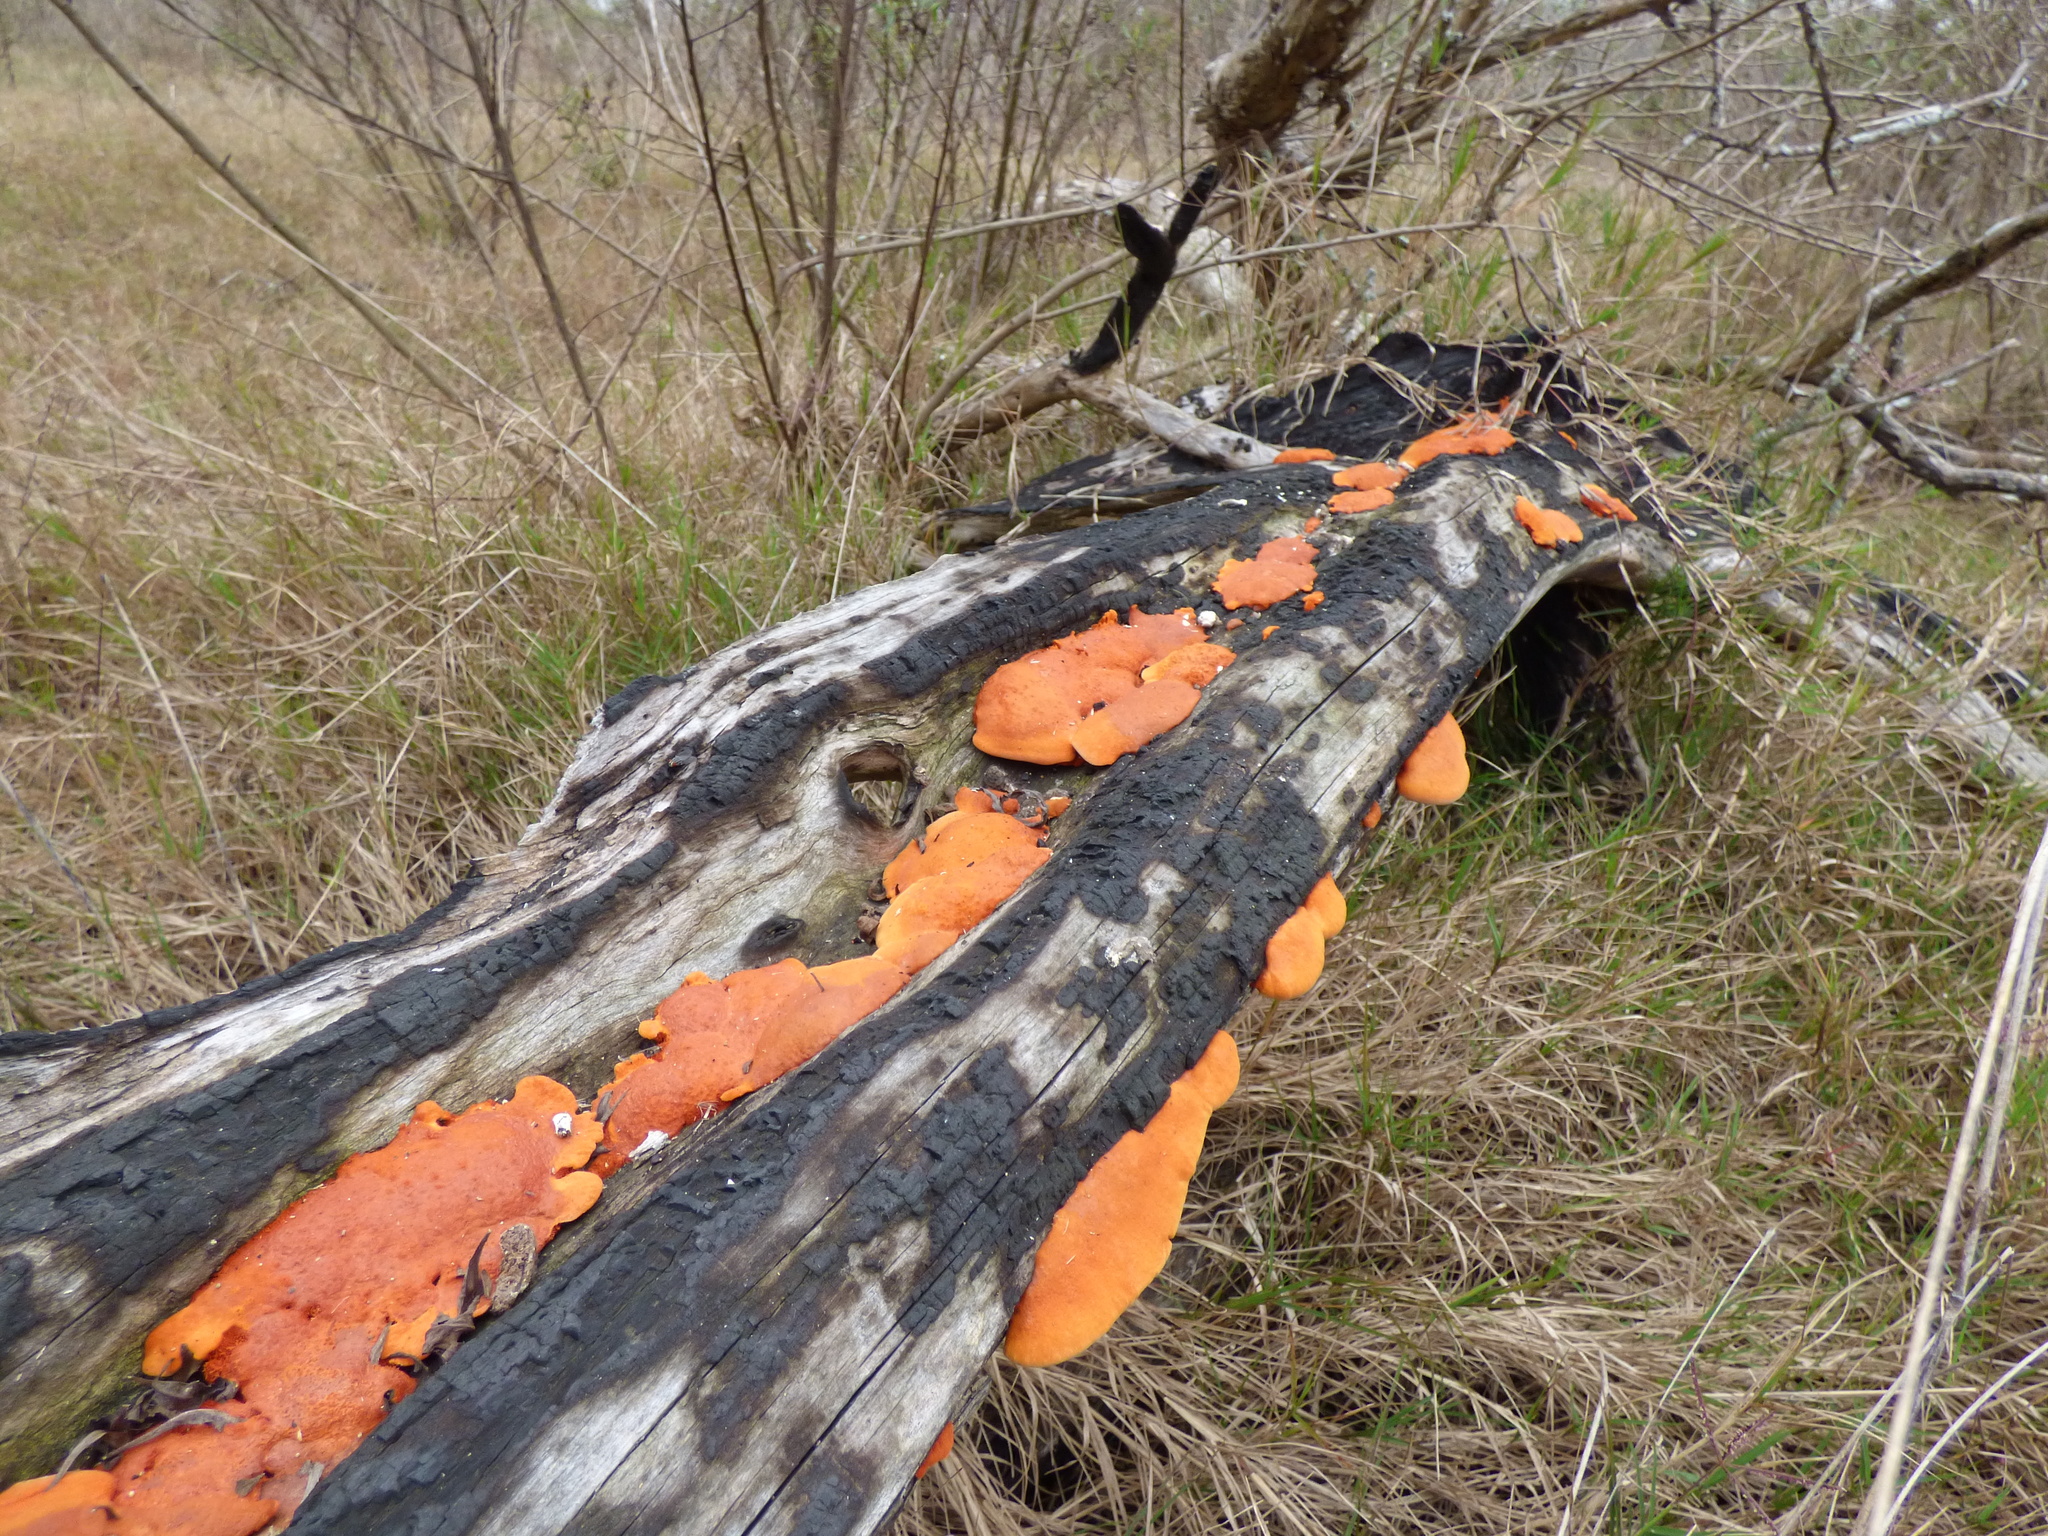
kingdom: Fungi
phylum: Basidiomycota
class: Agaricomycetes
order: Polyporales
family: Polyporaceae
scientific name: Polyporaceae
